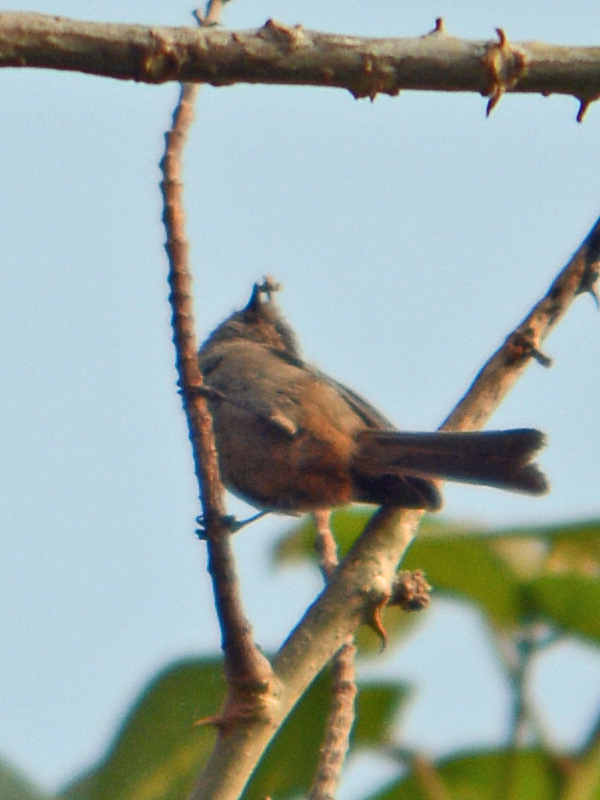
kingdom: Animalia
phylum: Chordata
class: Aves
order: Passeriformes
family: Aegithalidae
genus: Psaltriparus
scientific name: Psaltriparus minimus
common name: American bushtit
